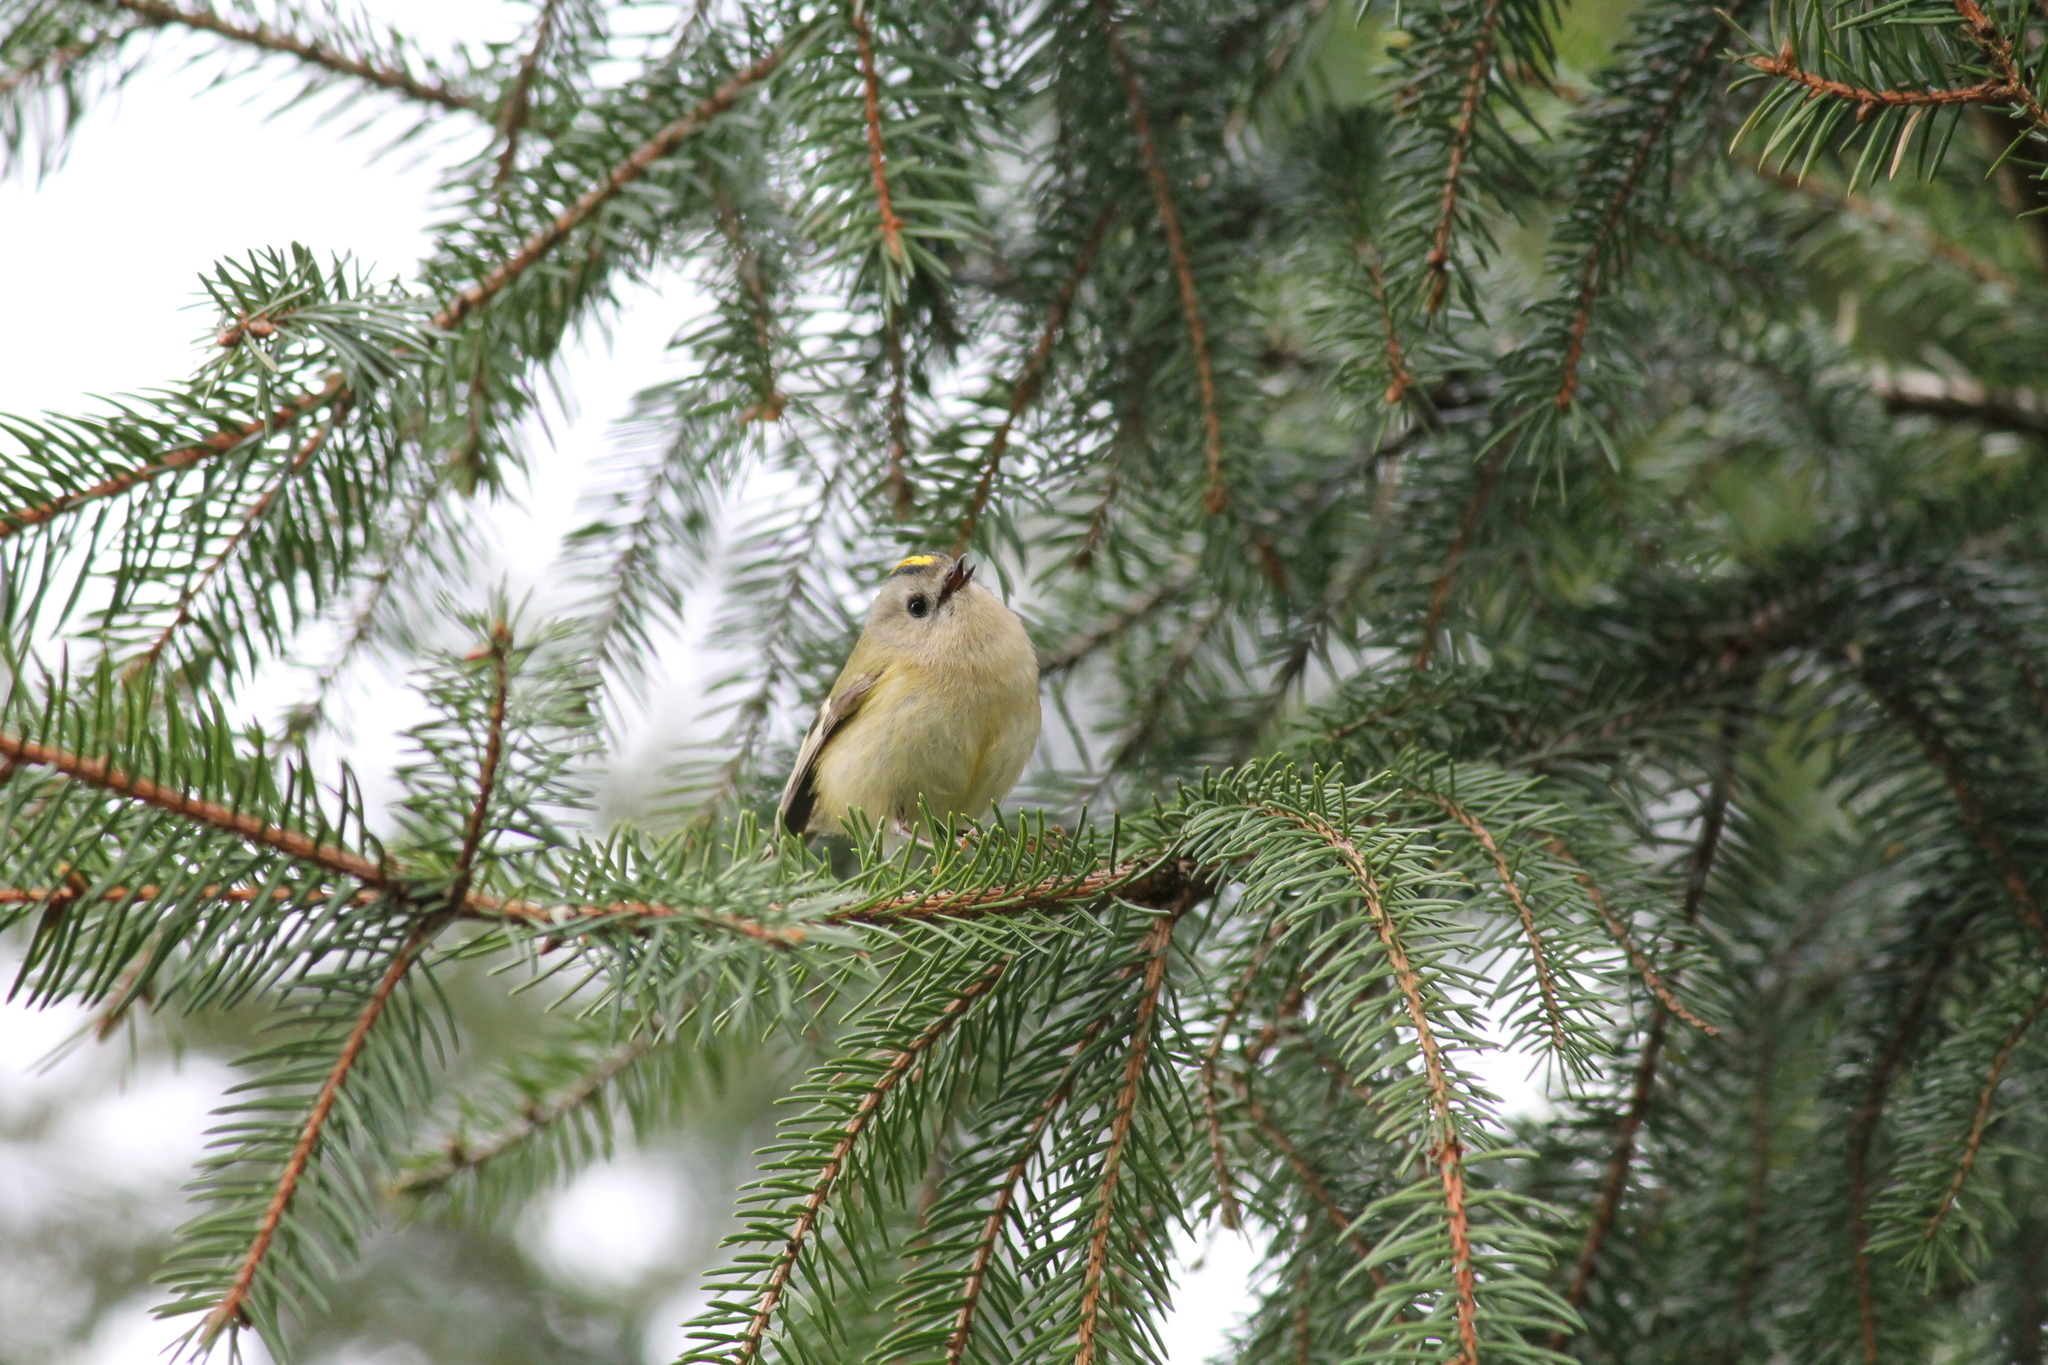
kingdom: Animalia
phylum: Chordata
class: Aves
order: Passeriformes
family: Regulidae
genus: Regulus
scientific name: Regulus regulus
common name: Goldcrest
